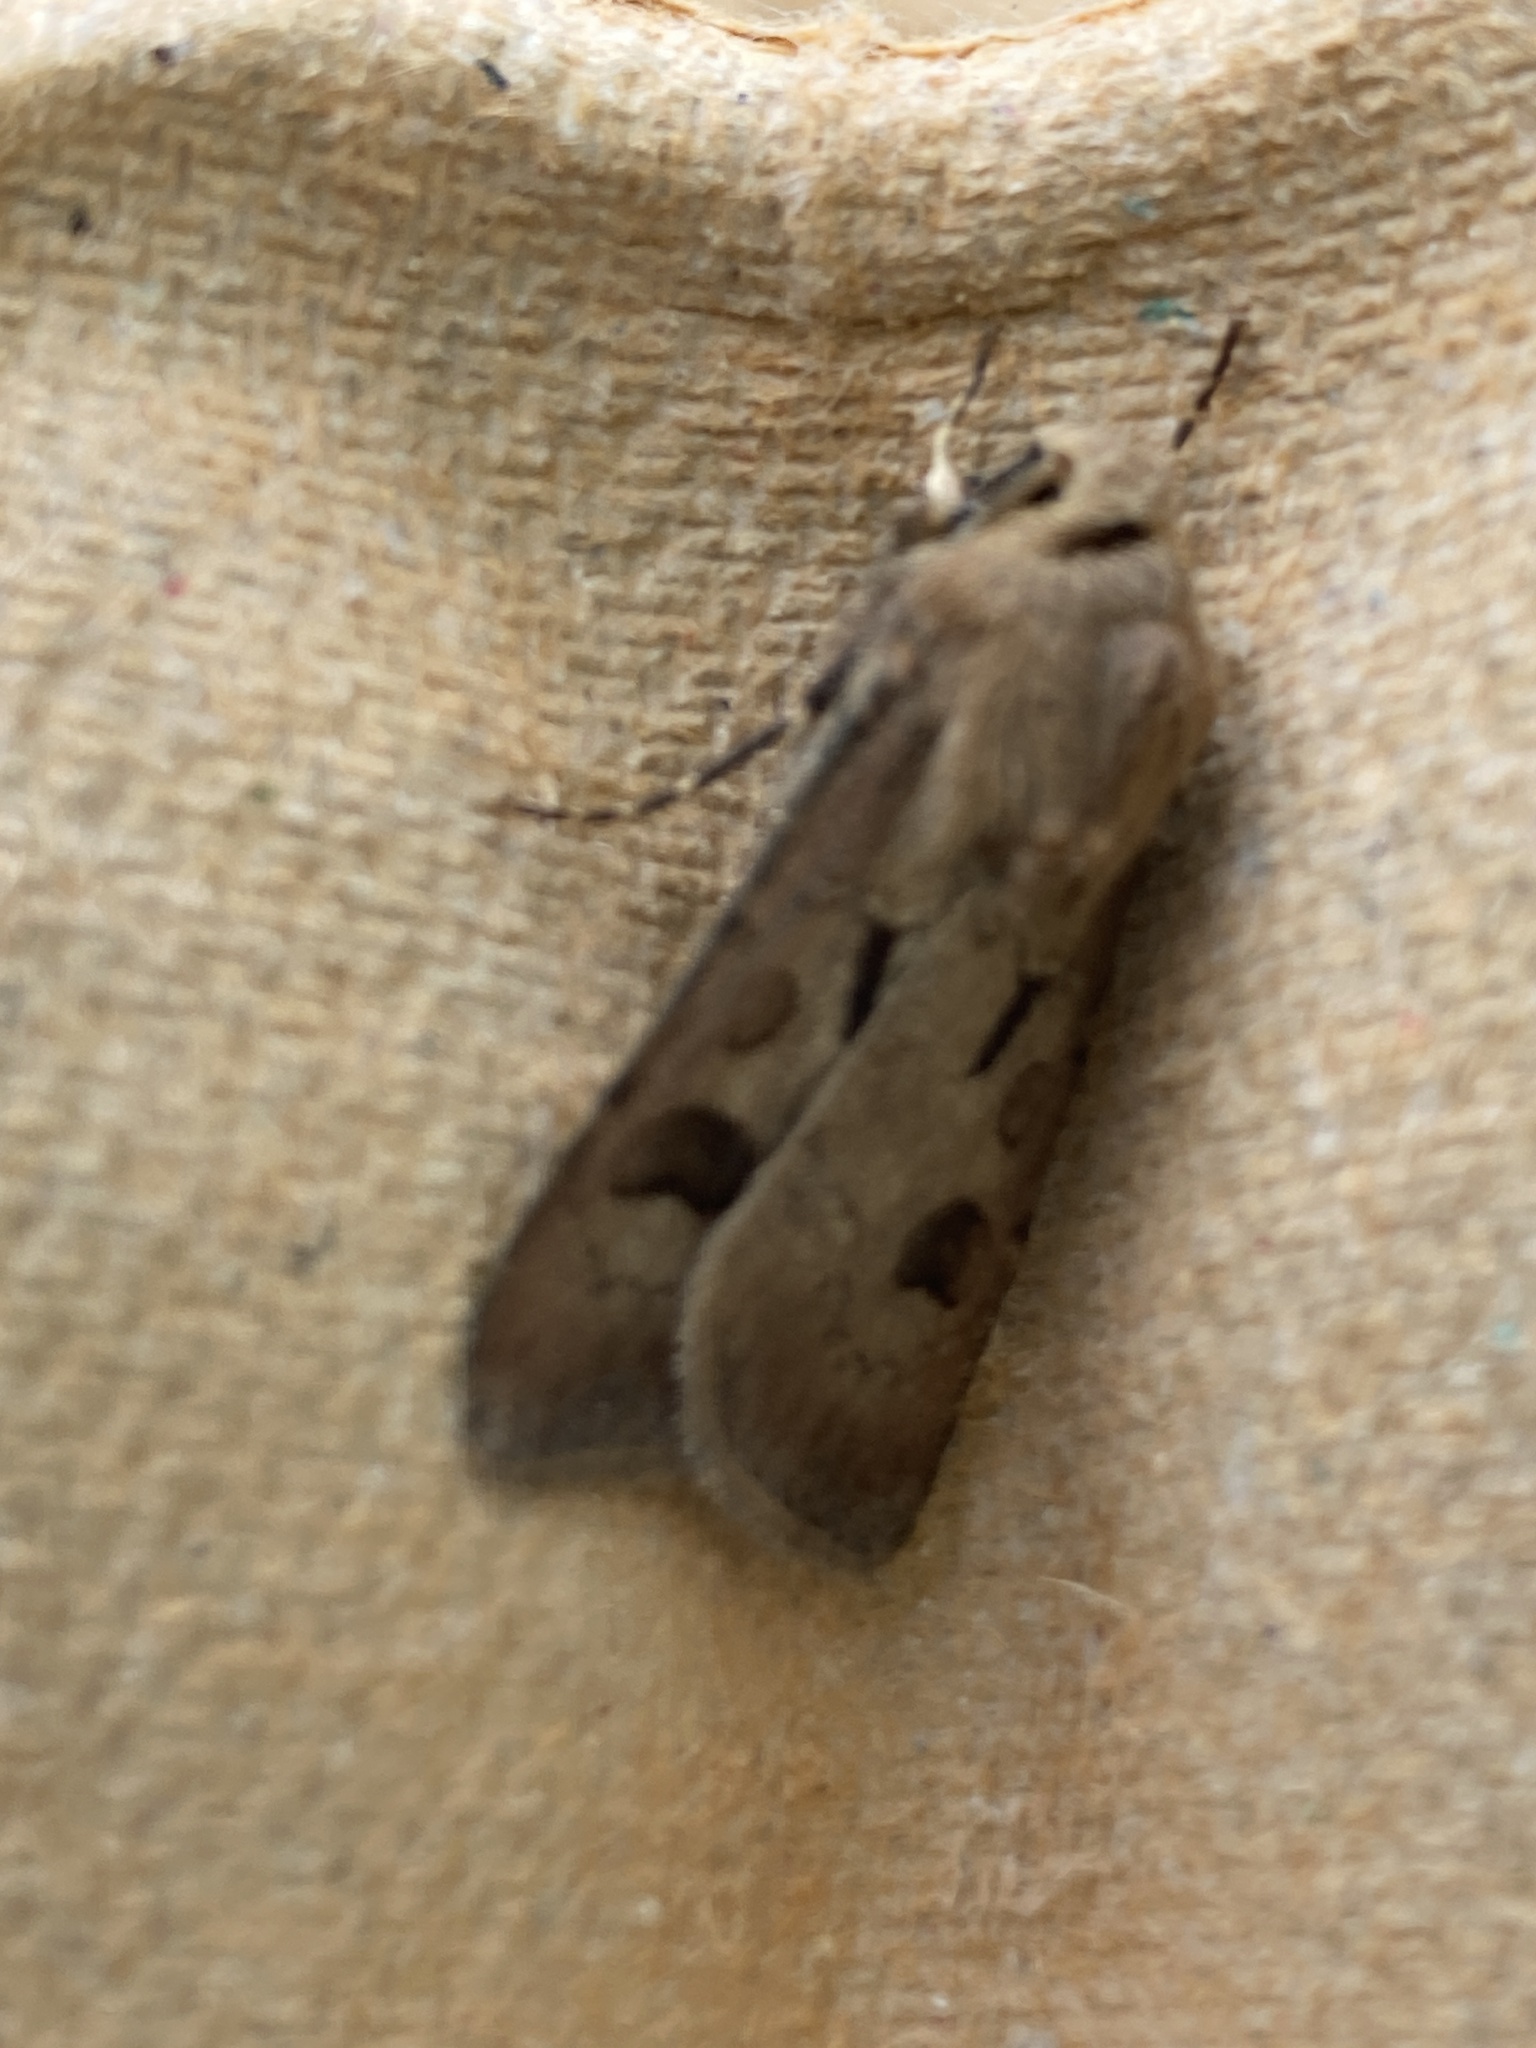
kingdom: Animalia
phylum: Arthropoda
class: Insecta
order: Lepidoptera
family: Noctuidae
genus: Agrotis
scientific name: Agrotis exclamationis
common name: Heart and dart
